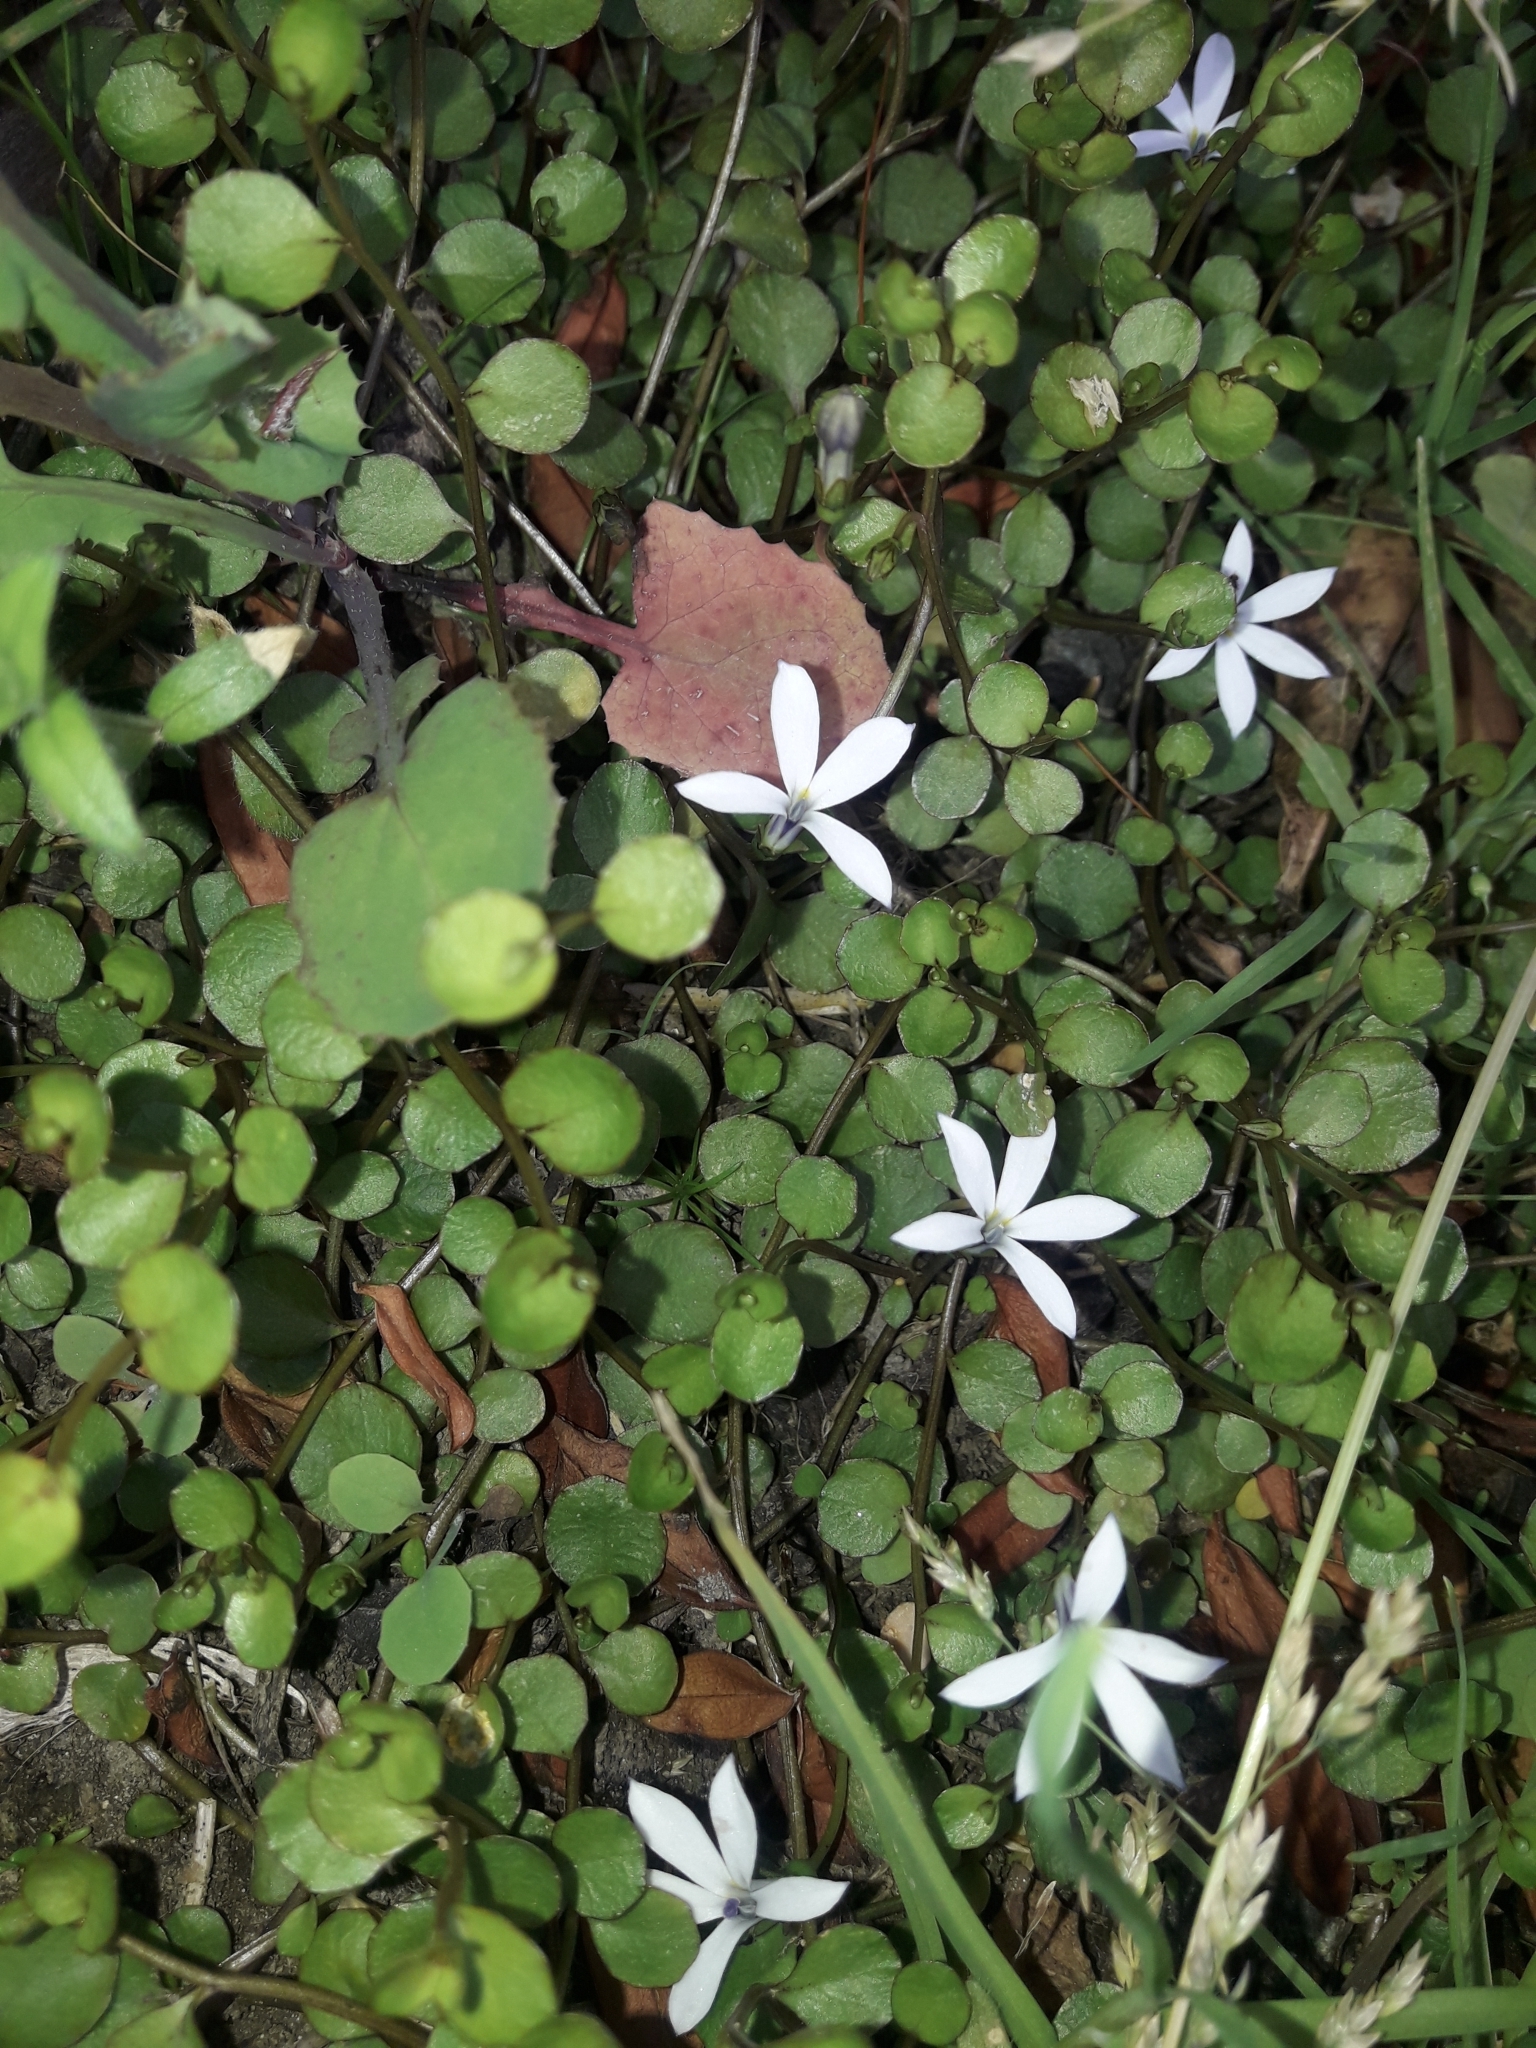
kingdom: Plantae
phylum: Tracheophyta
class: Magnoliopsida
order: Asterales
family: Campanulaceae
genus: Lobelia
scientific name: Lobelia angulata
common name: Lawn lobelia
